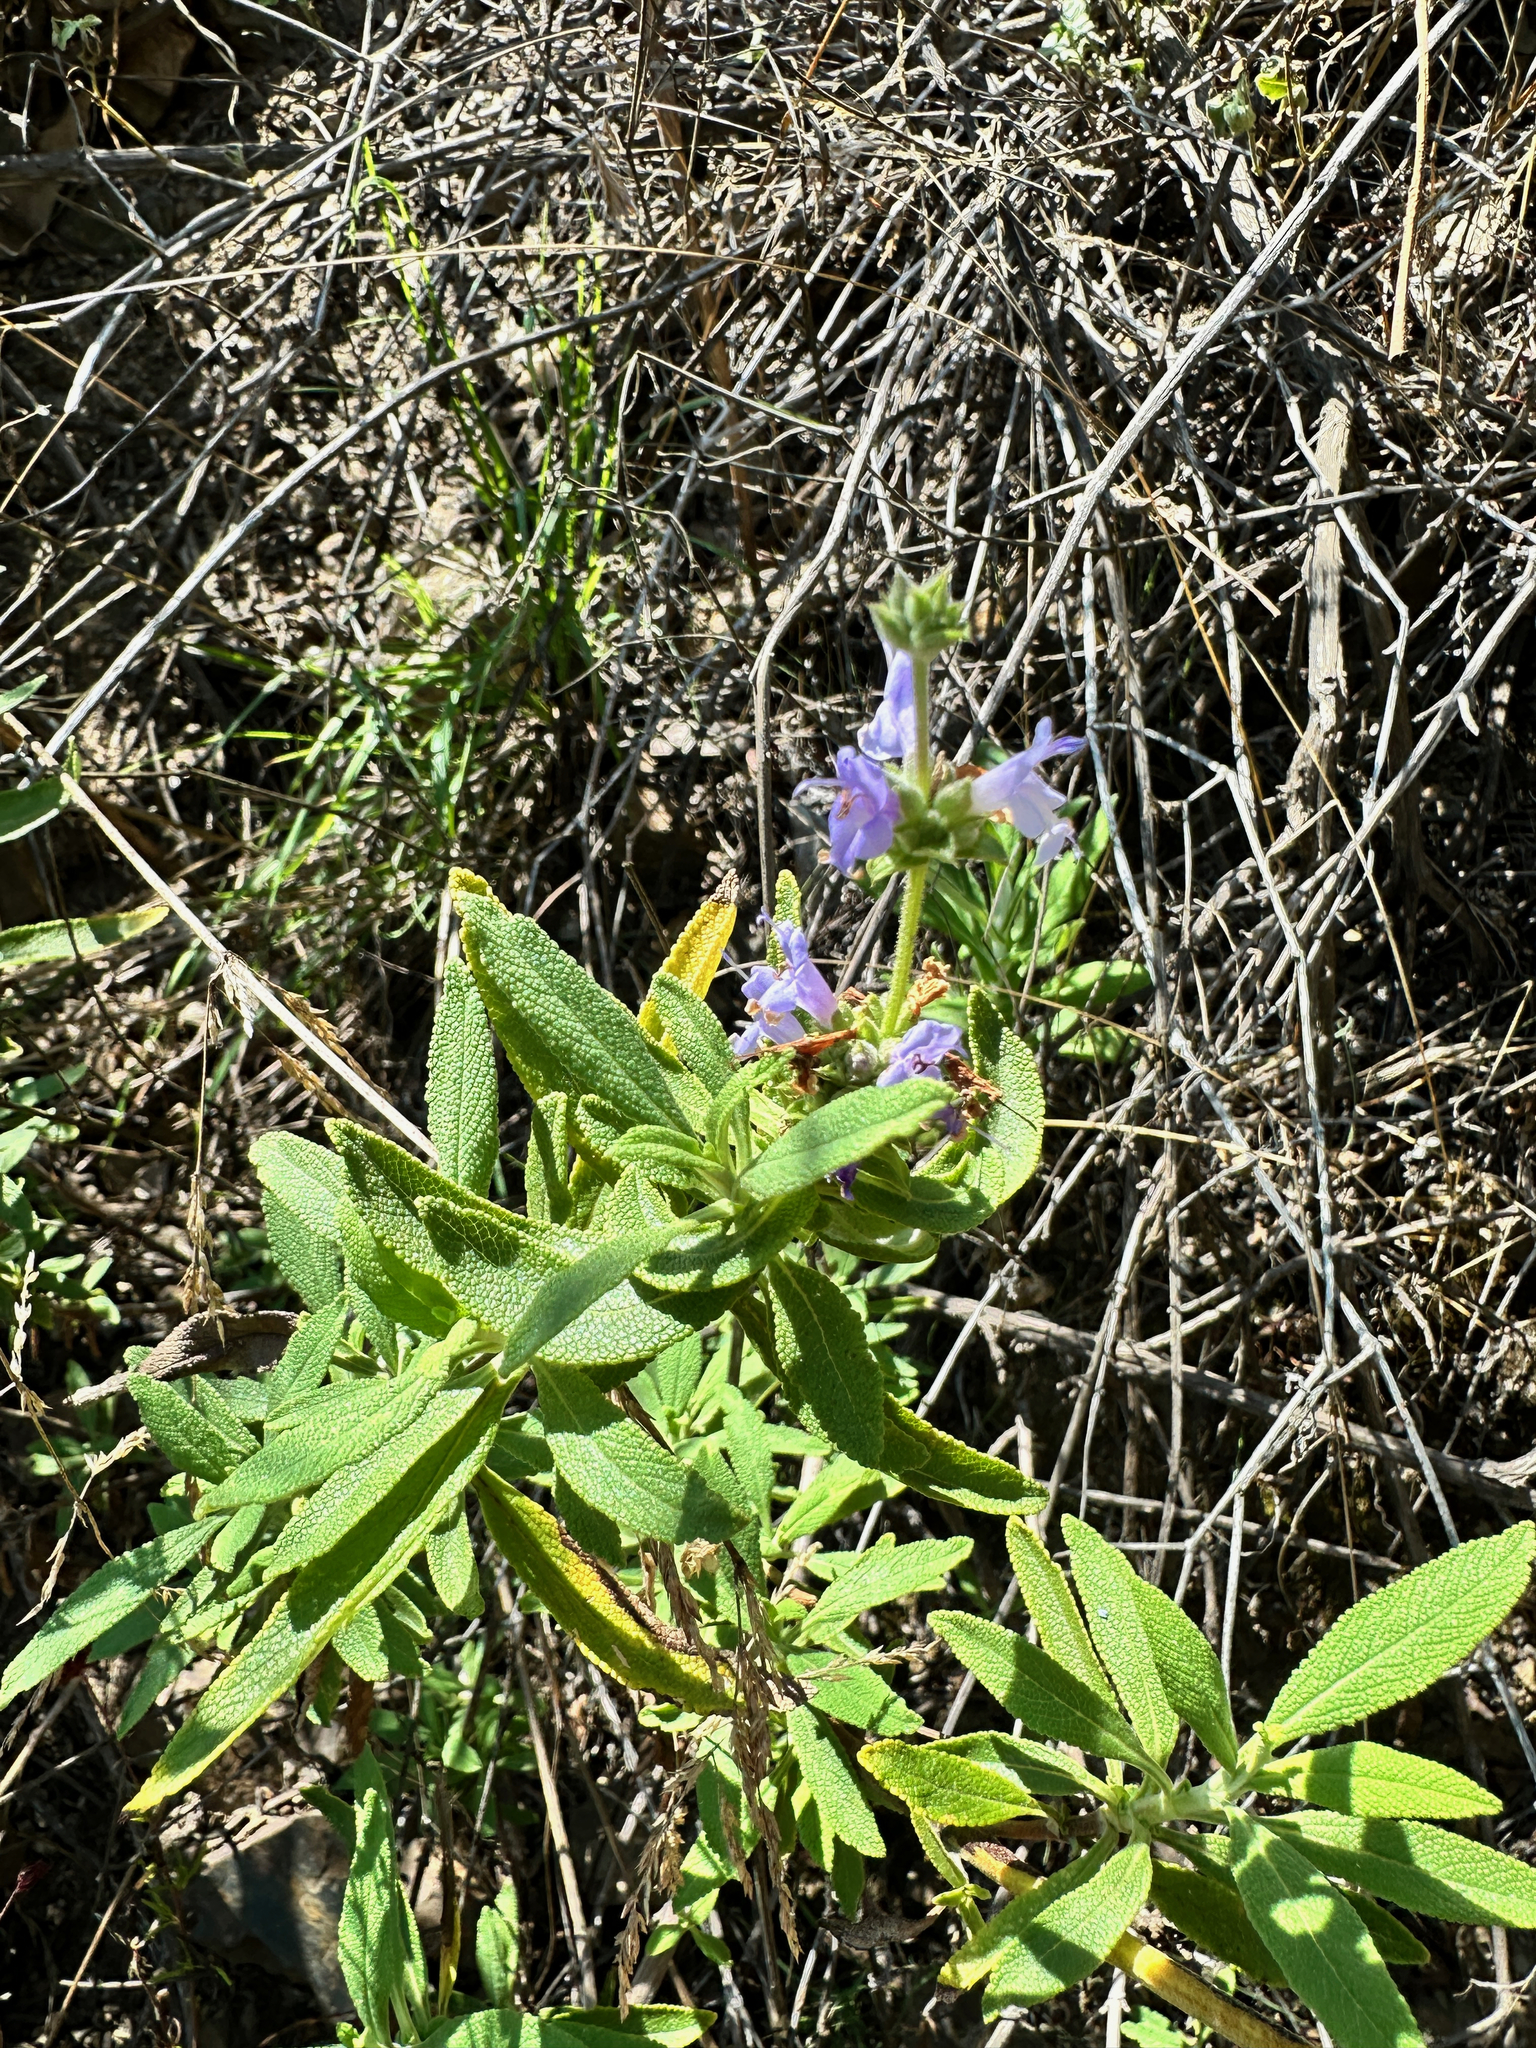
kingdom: Plantae
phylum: Tracheophyta
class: Magnoliopsida
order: Lamiales
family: Lamiaceae
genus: Salvia
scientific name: Salvia mellifera
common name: Black sage
